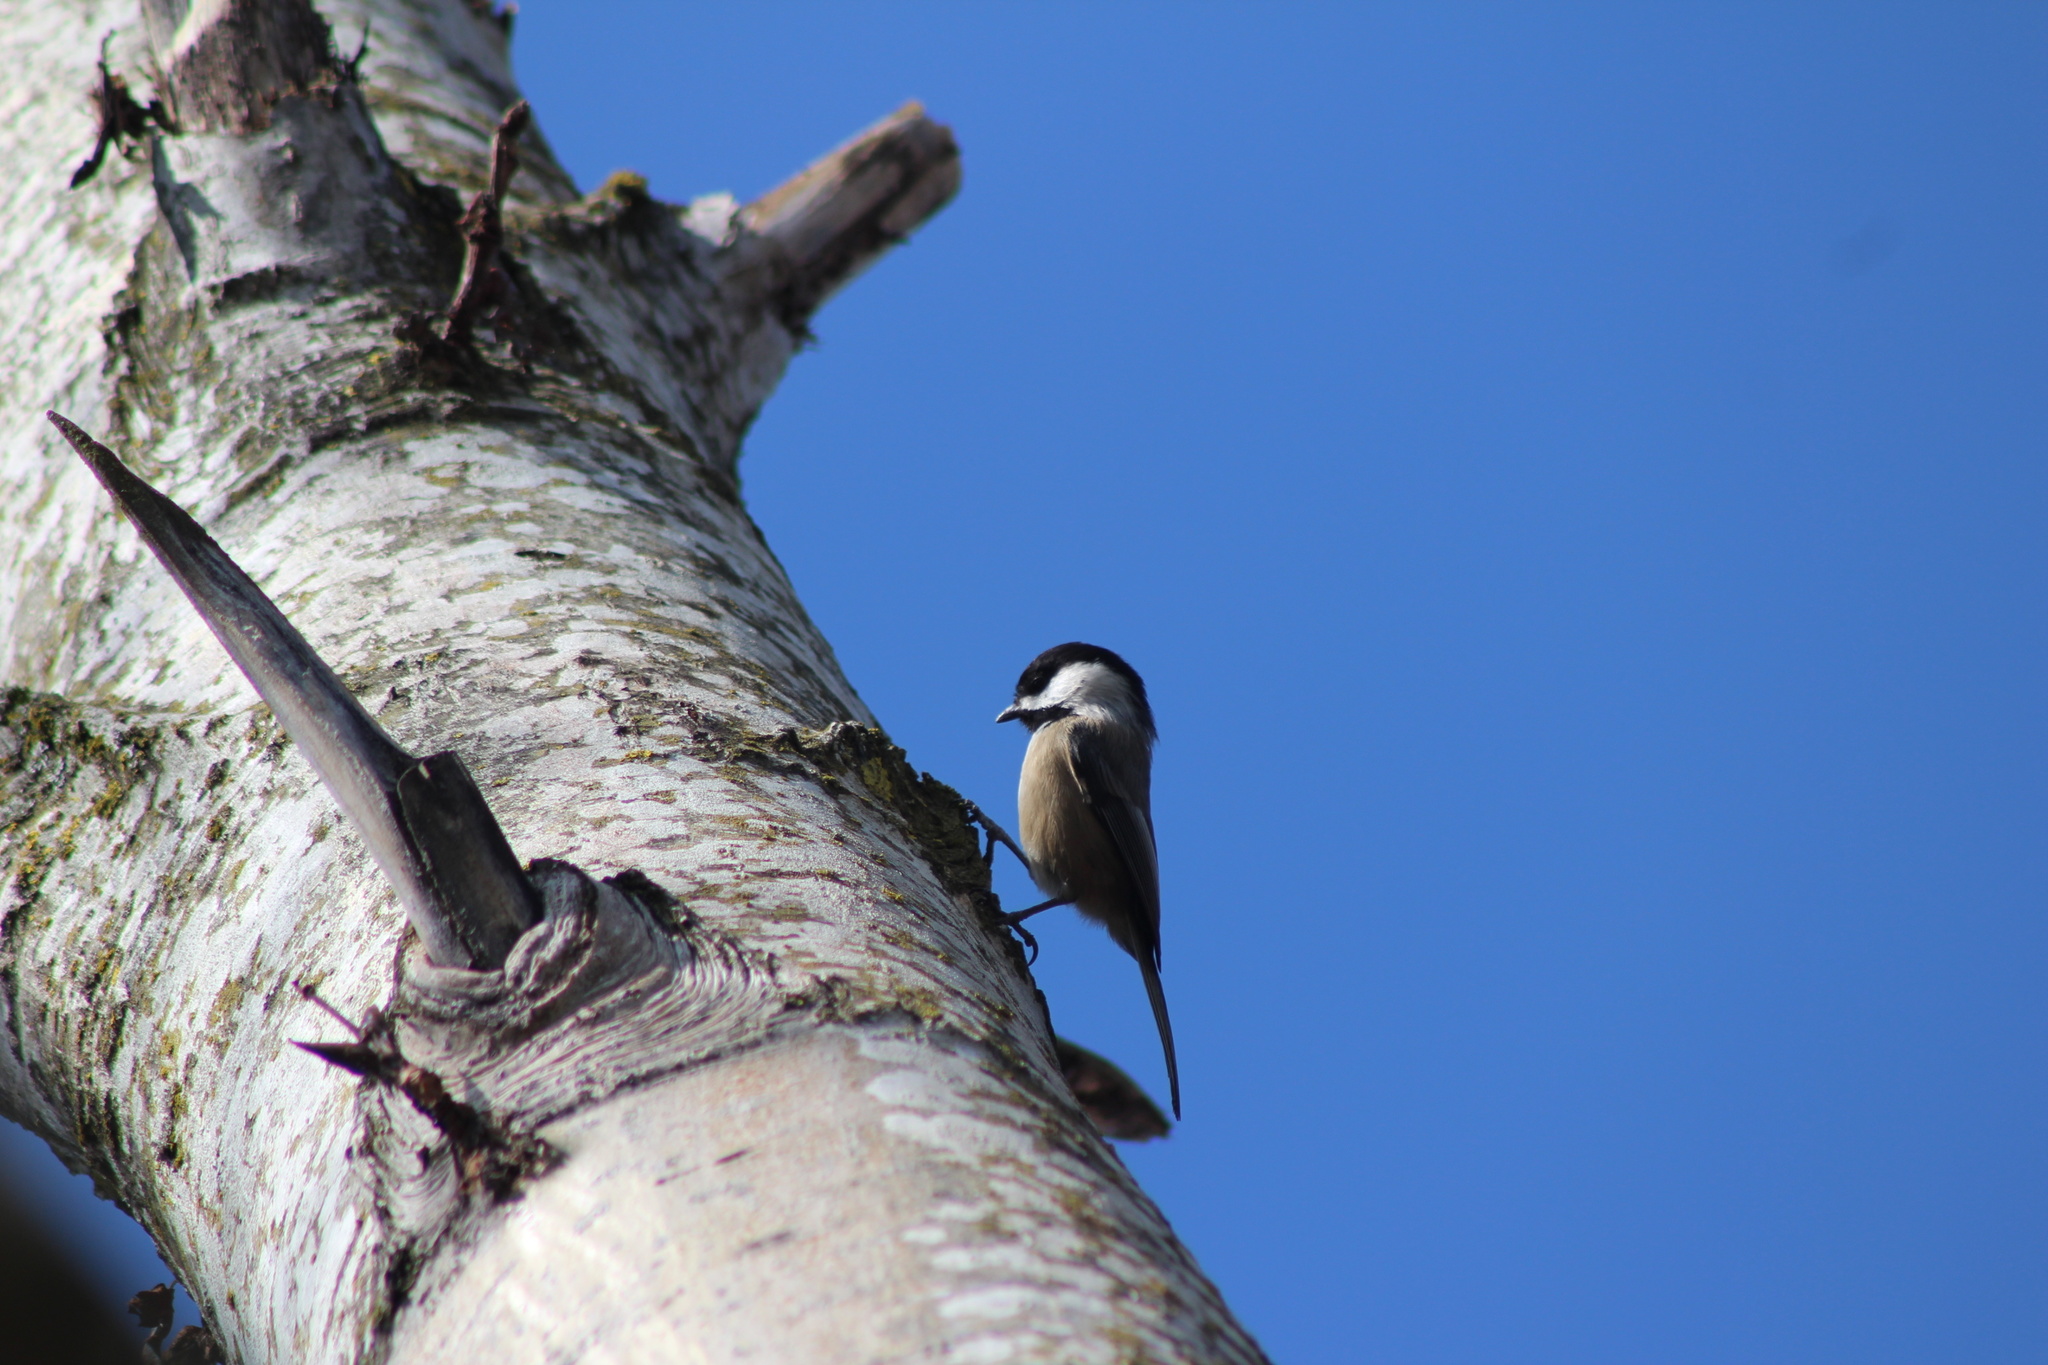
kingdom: Animalia
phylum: Chordata
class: Aves
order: Passeriformes
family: Paridae
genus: Poecile
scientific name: Poecile atricapillus
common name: Black-capped chickadee
